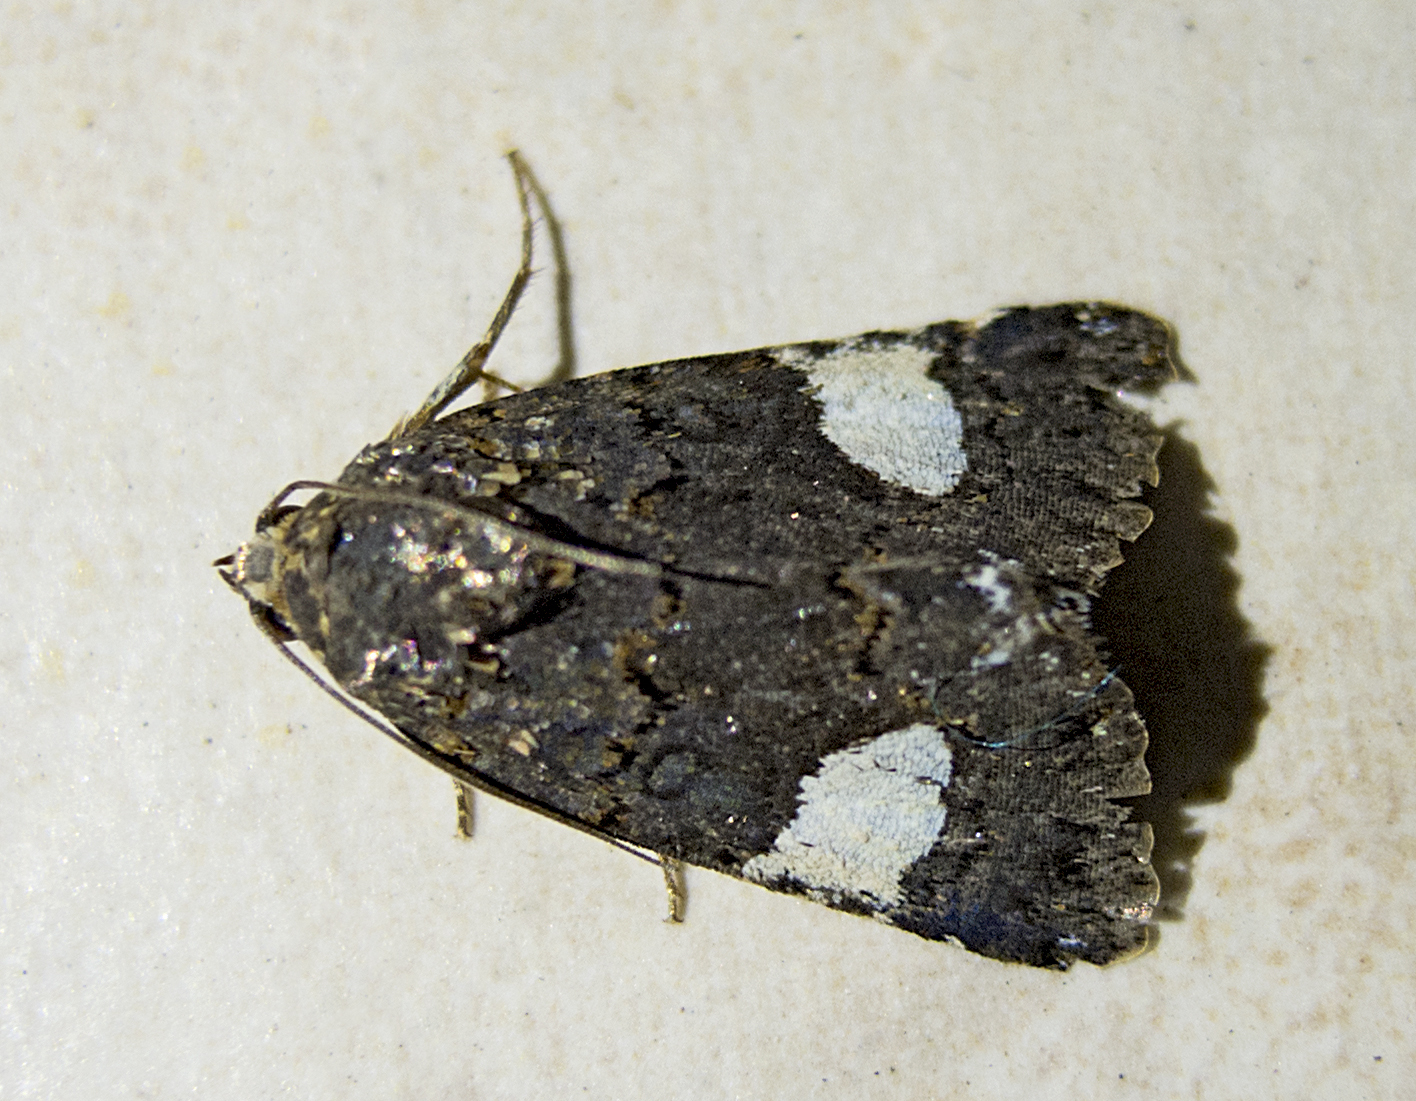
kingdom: Animalia
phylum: Arthropoda
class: Insecta
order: Lepidoptera
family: Erebidae
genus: Tyta
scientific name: Tyta luctuosa
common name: Four-spotted
